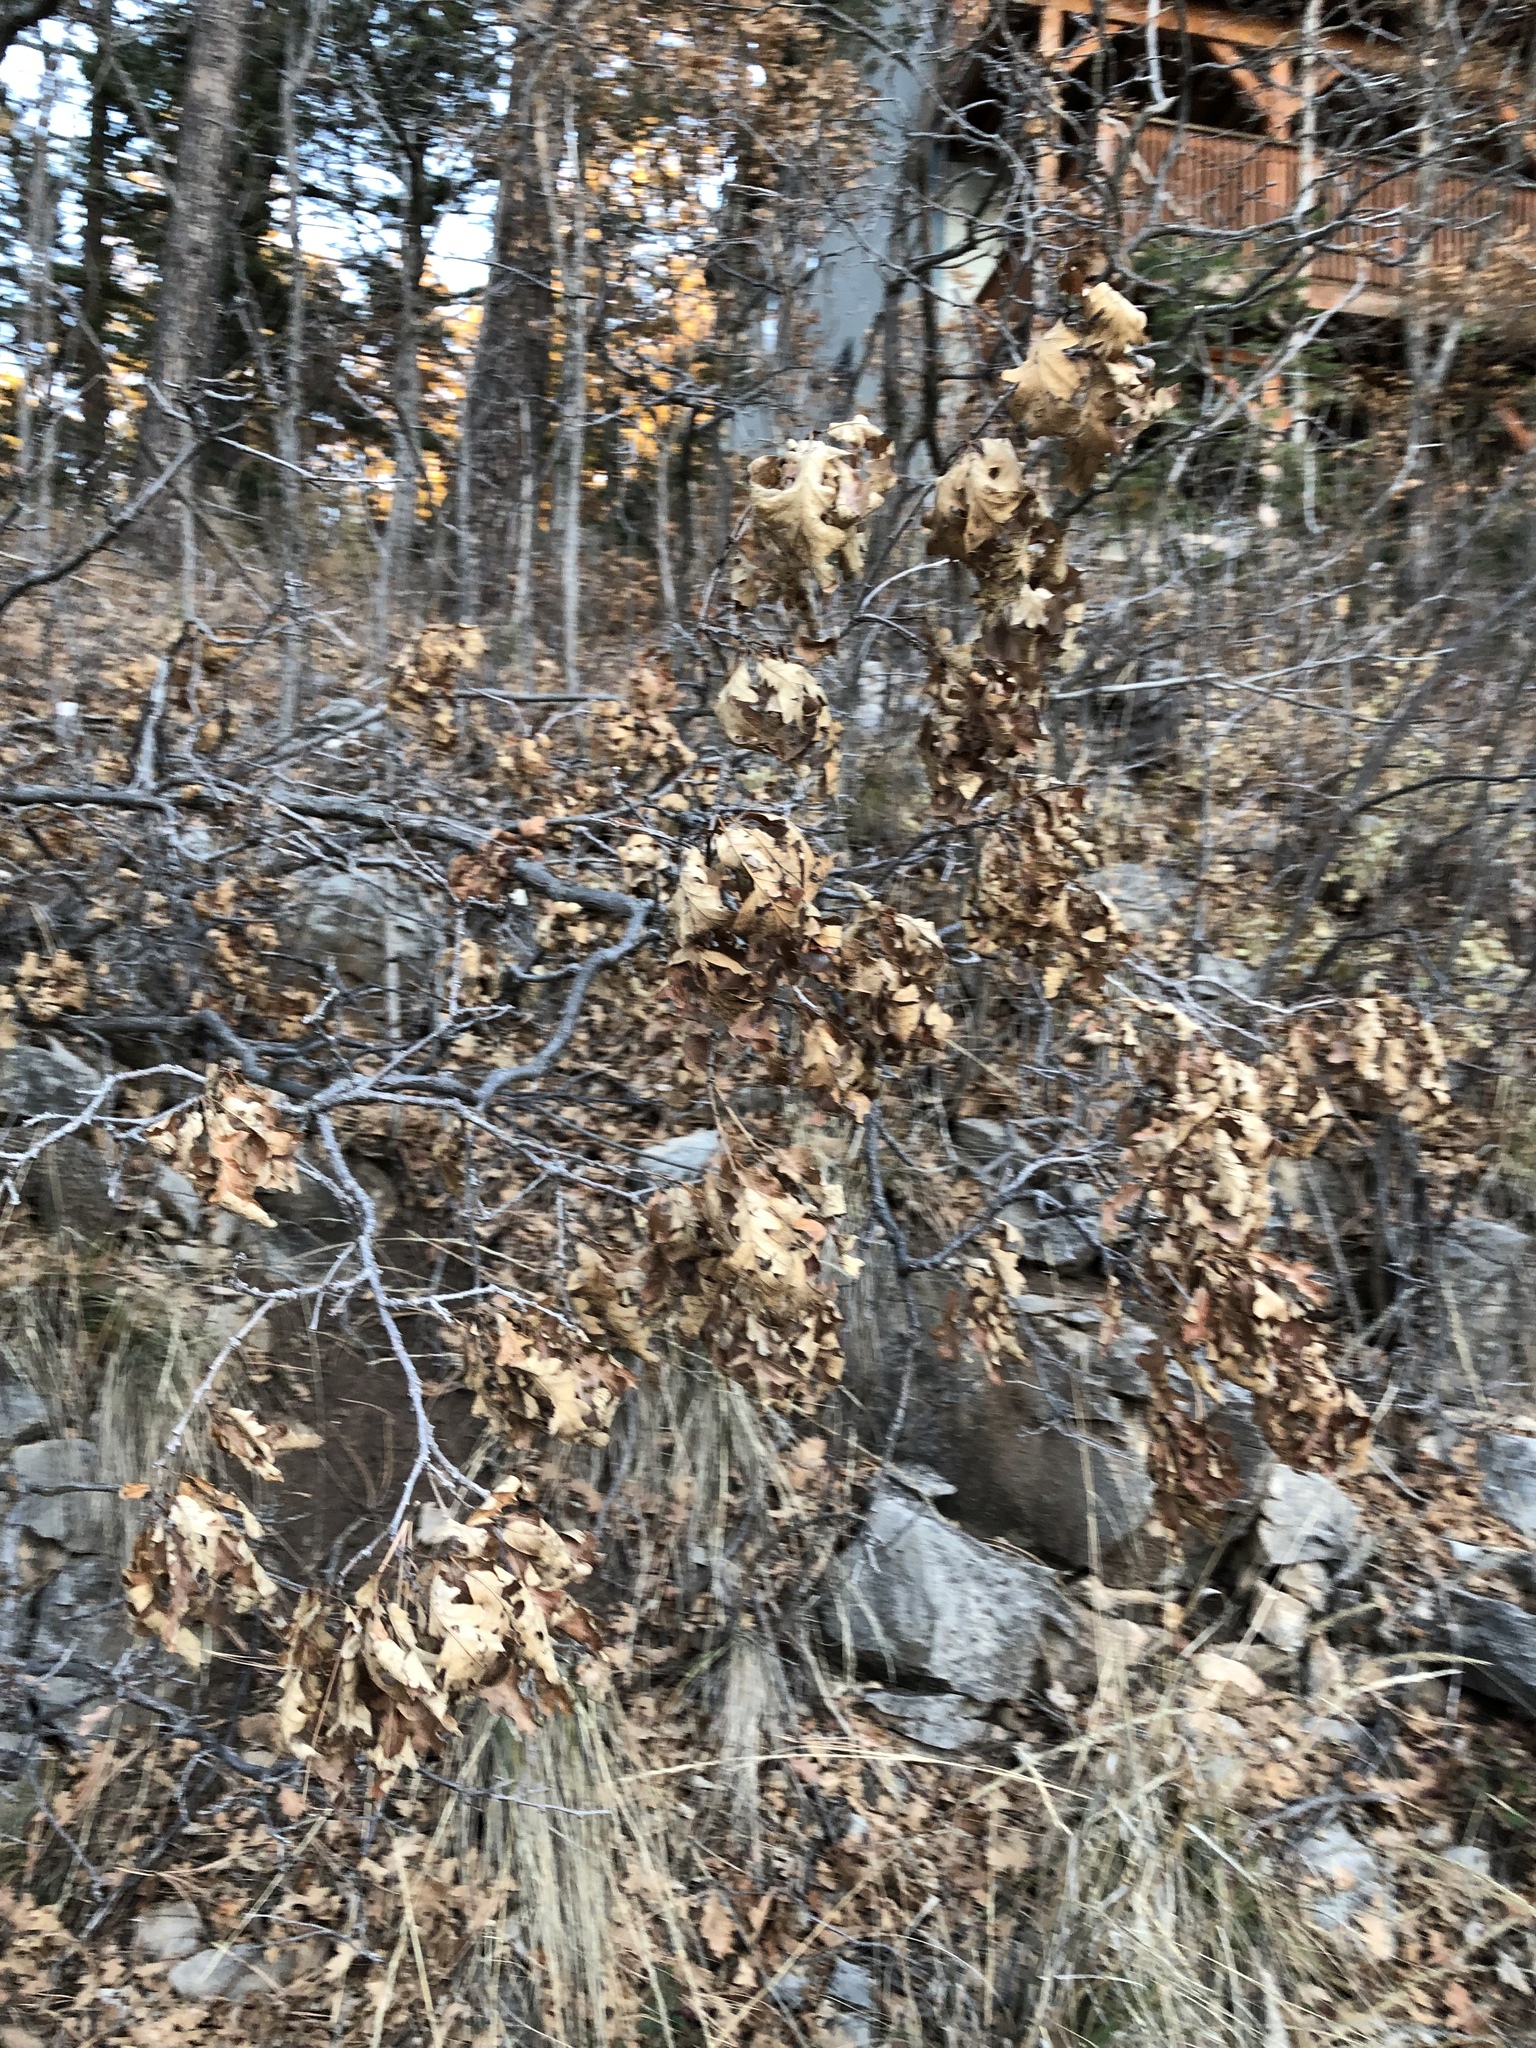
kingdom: Plantae
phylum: Tracheophyta
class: Magnoliopsida
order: Fagales
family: Fagaceae
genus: Quercus
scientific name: Quercus gambelii
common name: Gambel oak
